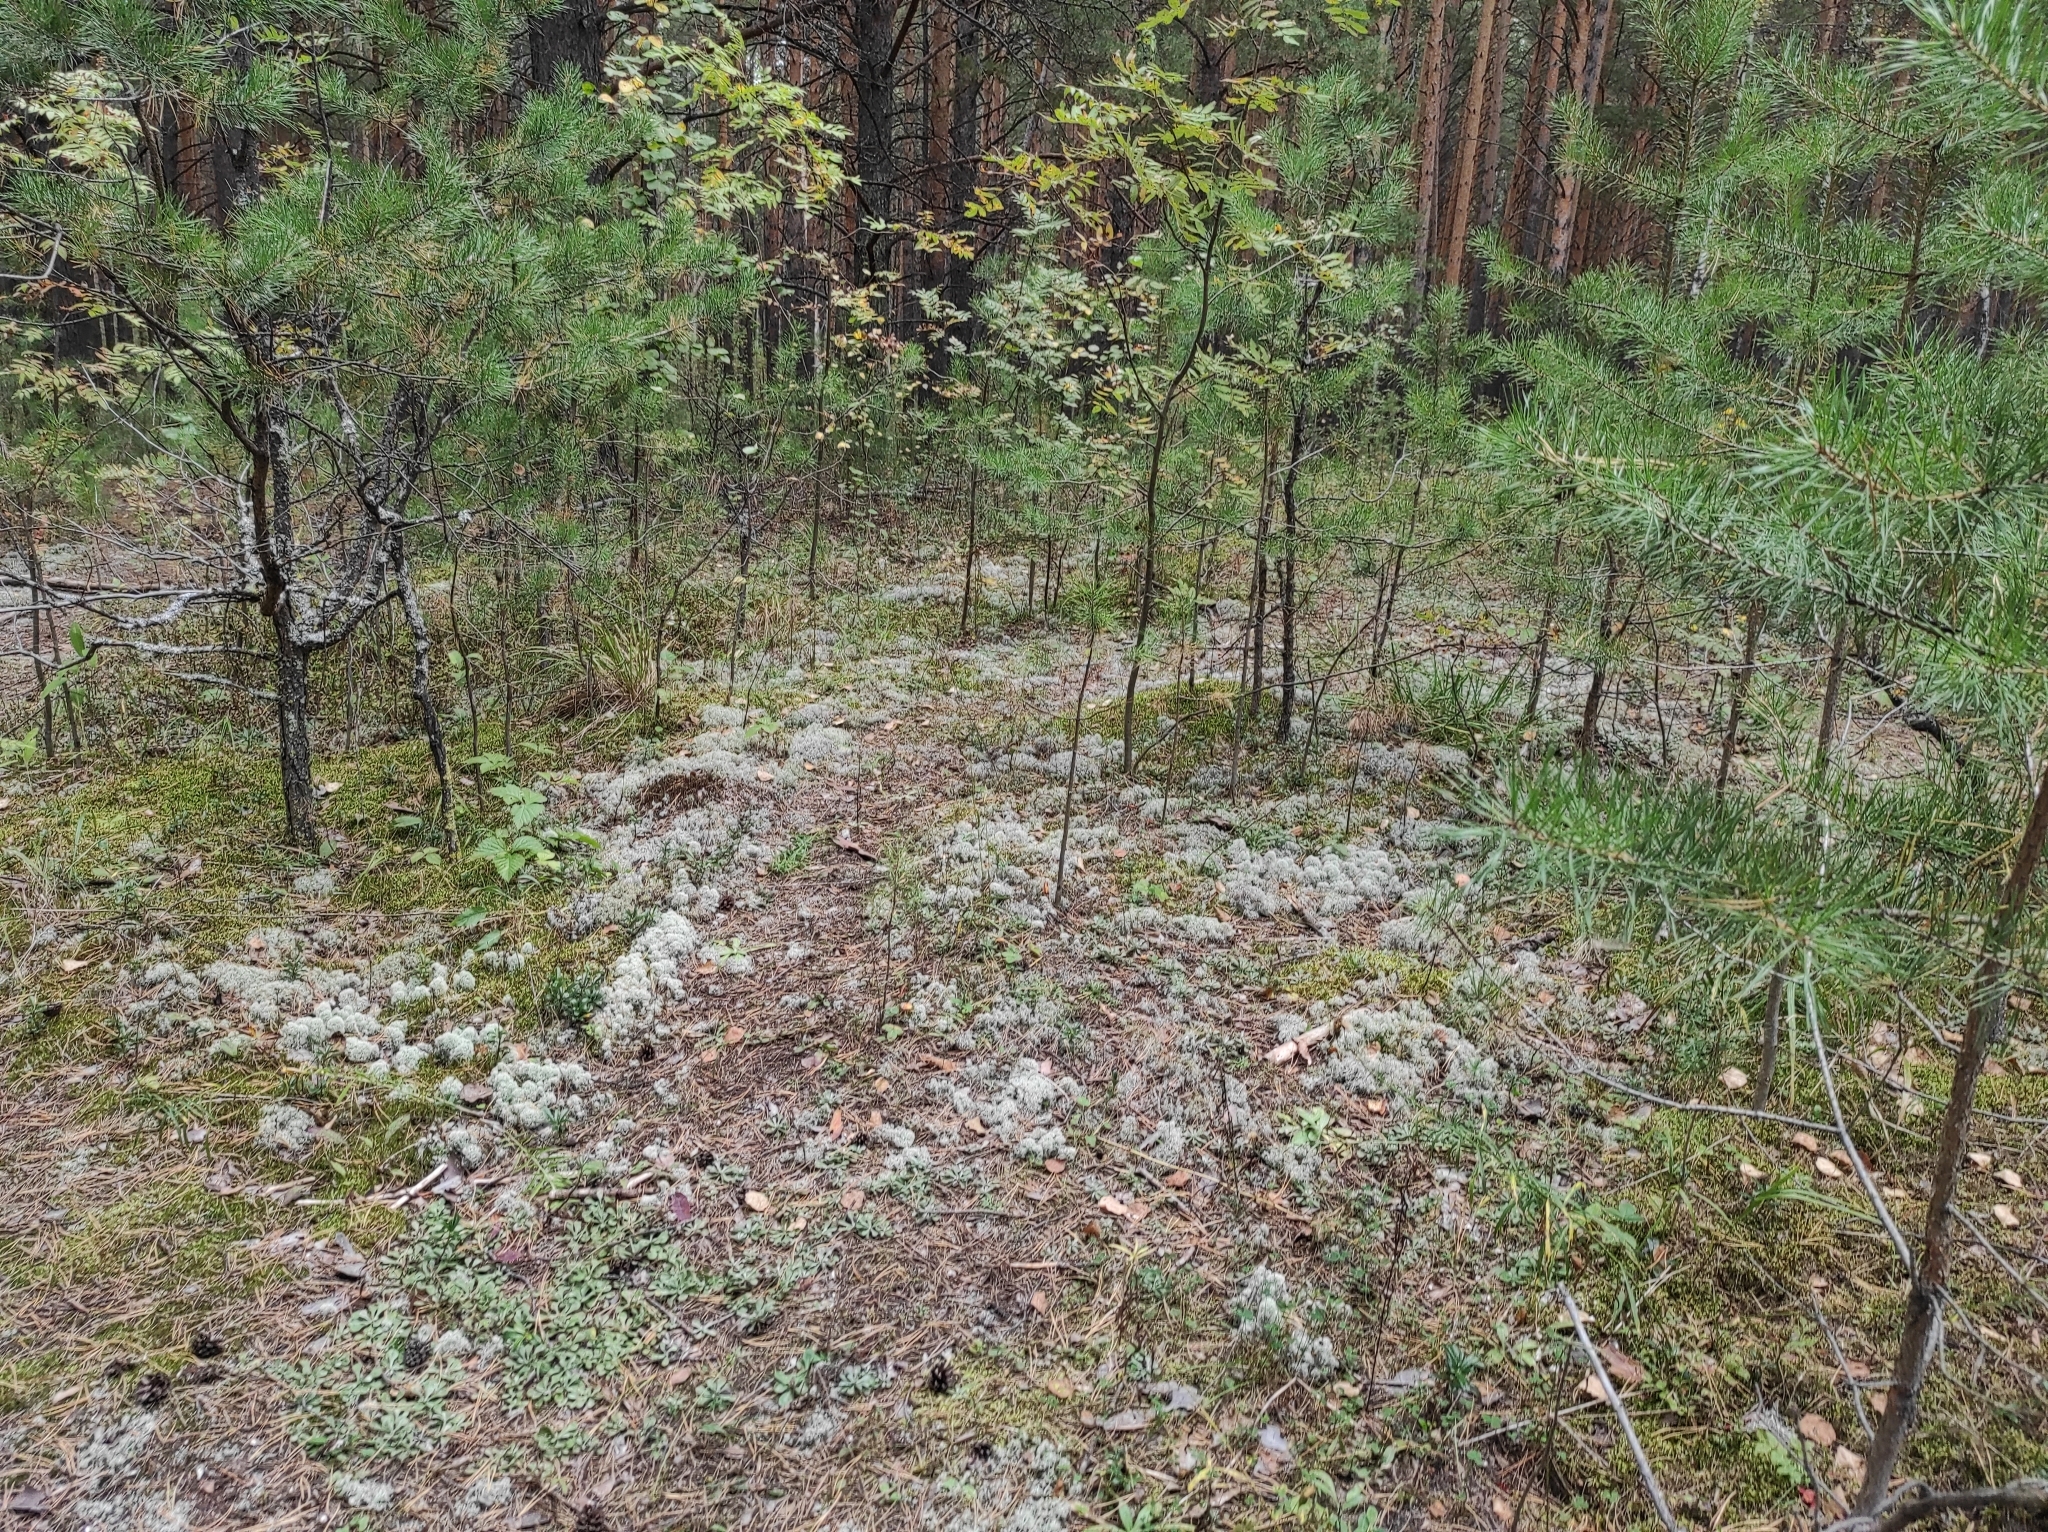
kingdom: Plantae
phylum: Tracheophyta
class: Pinopsida
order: Pinales
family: Pinaceae
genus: Pinus
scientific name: Pinus sylvestris
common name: Scots pine
